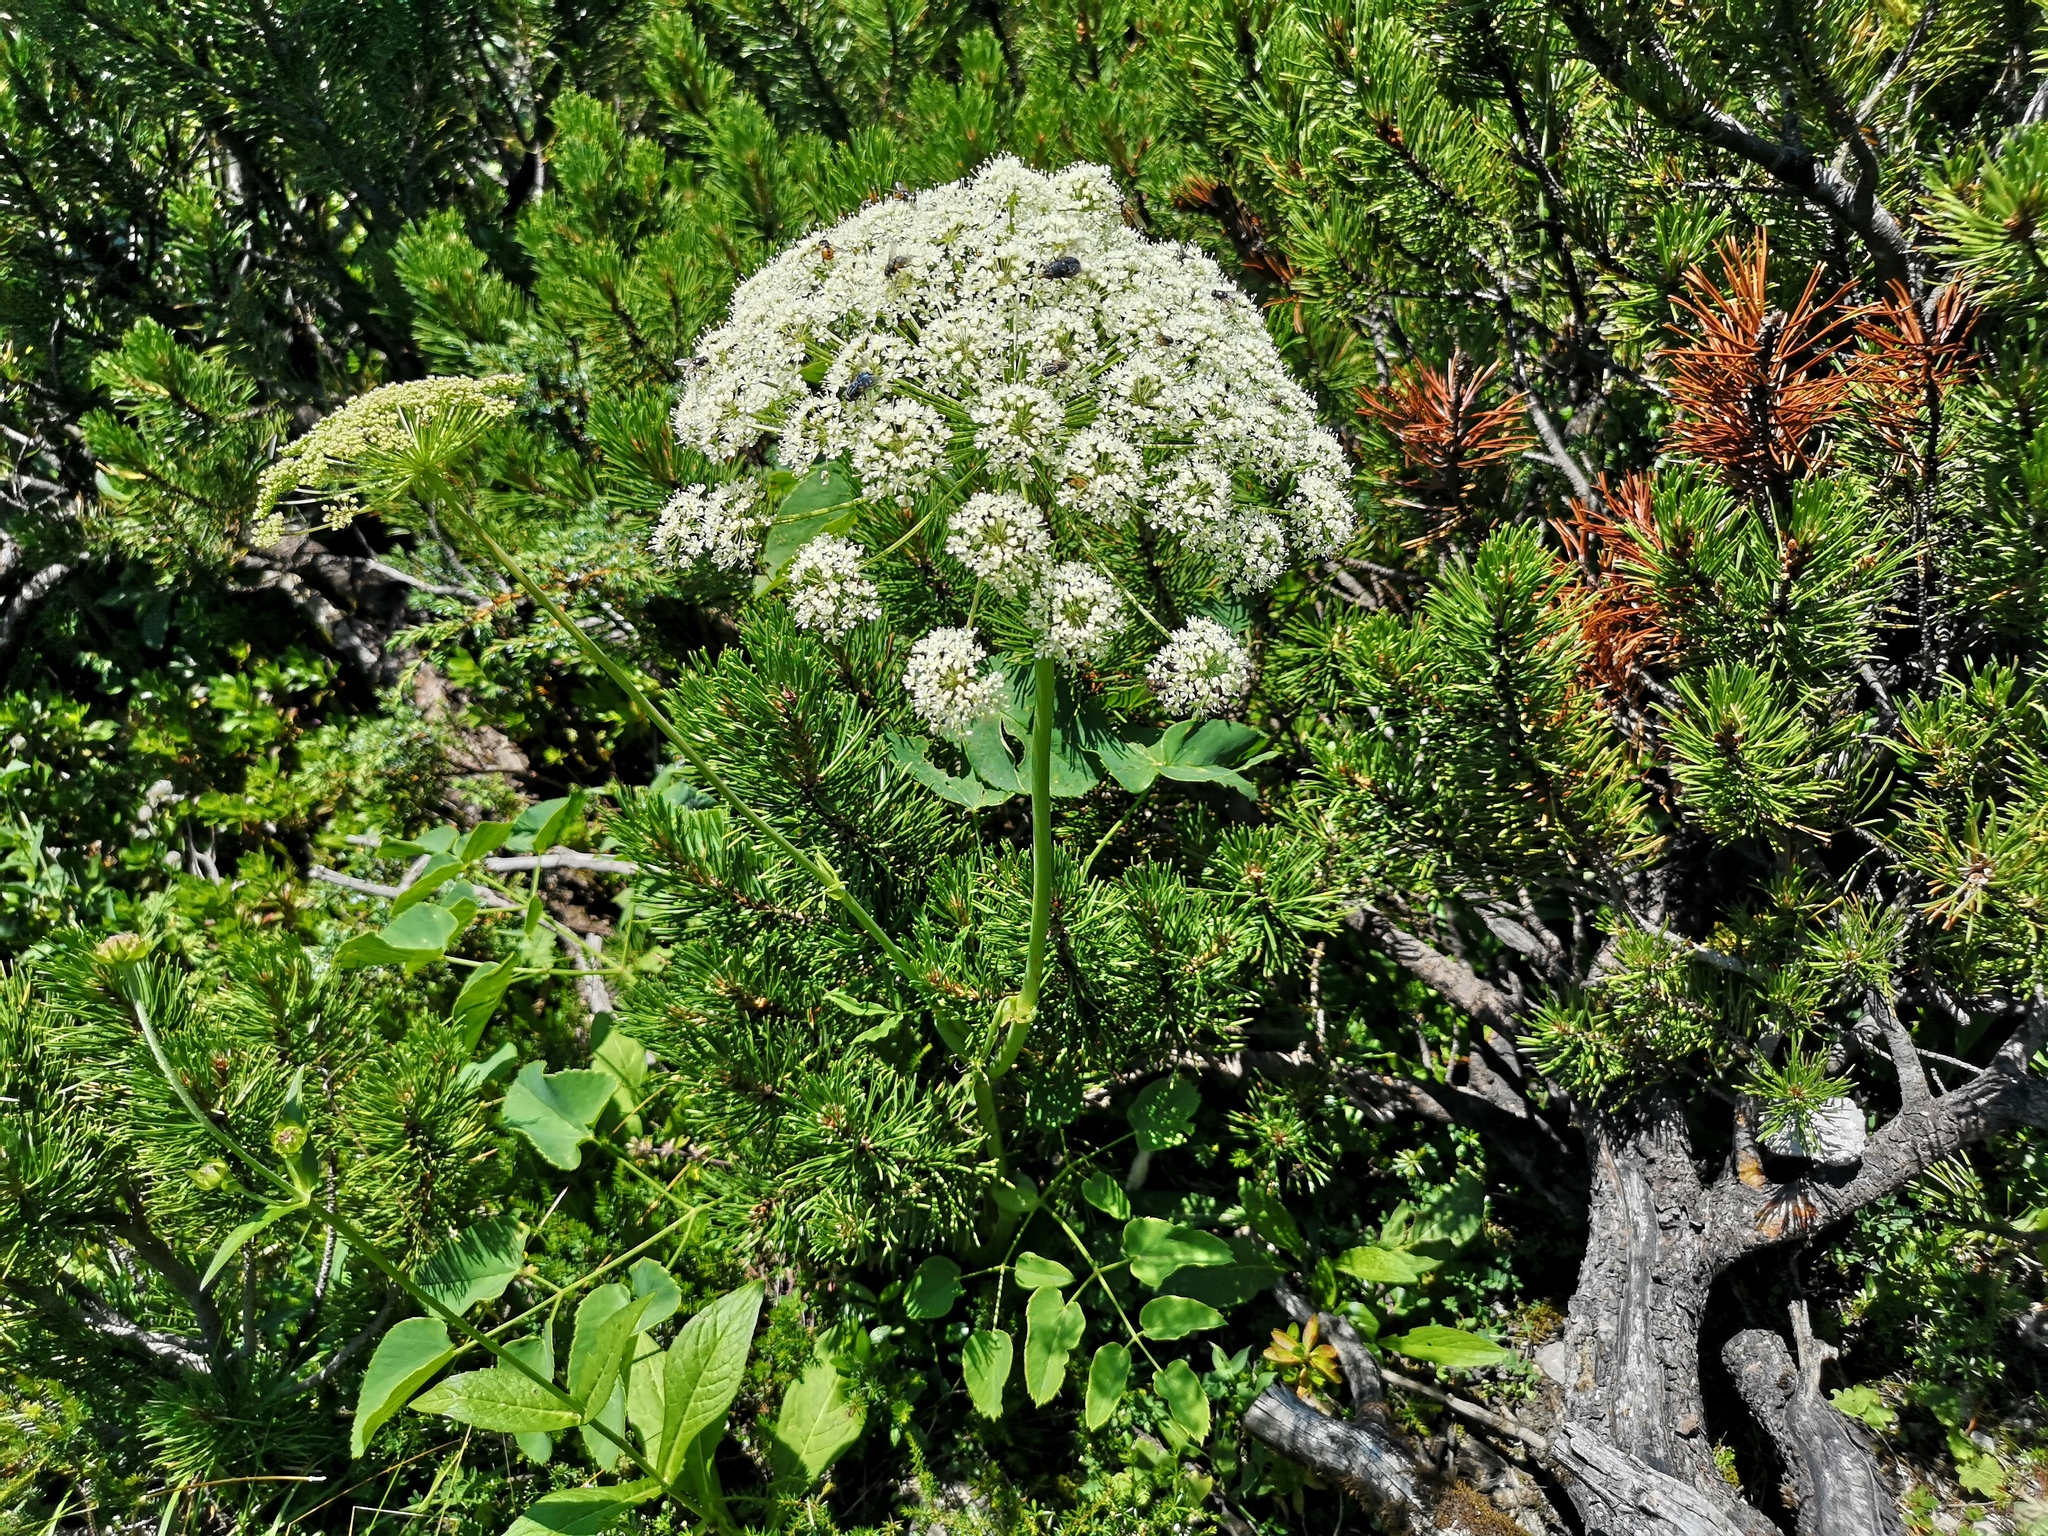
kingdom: Plantae
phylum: Tracheophyta
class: Magnoliopsida
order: Apiales
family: Apiaceae
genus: Laserpitium
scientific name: Laserpitium latifolium
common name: Broadleaf sermountain
